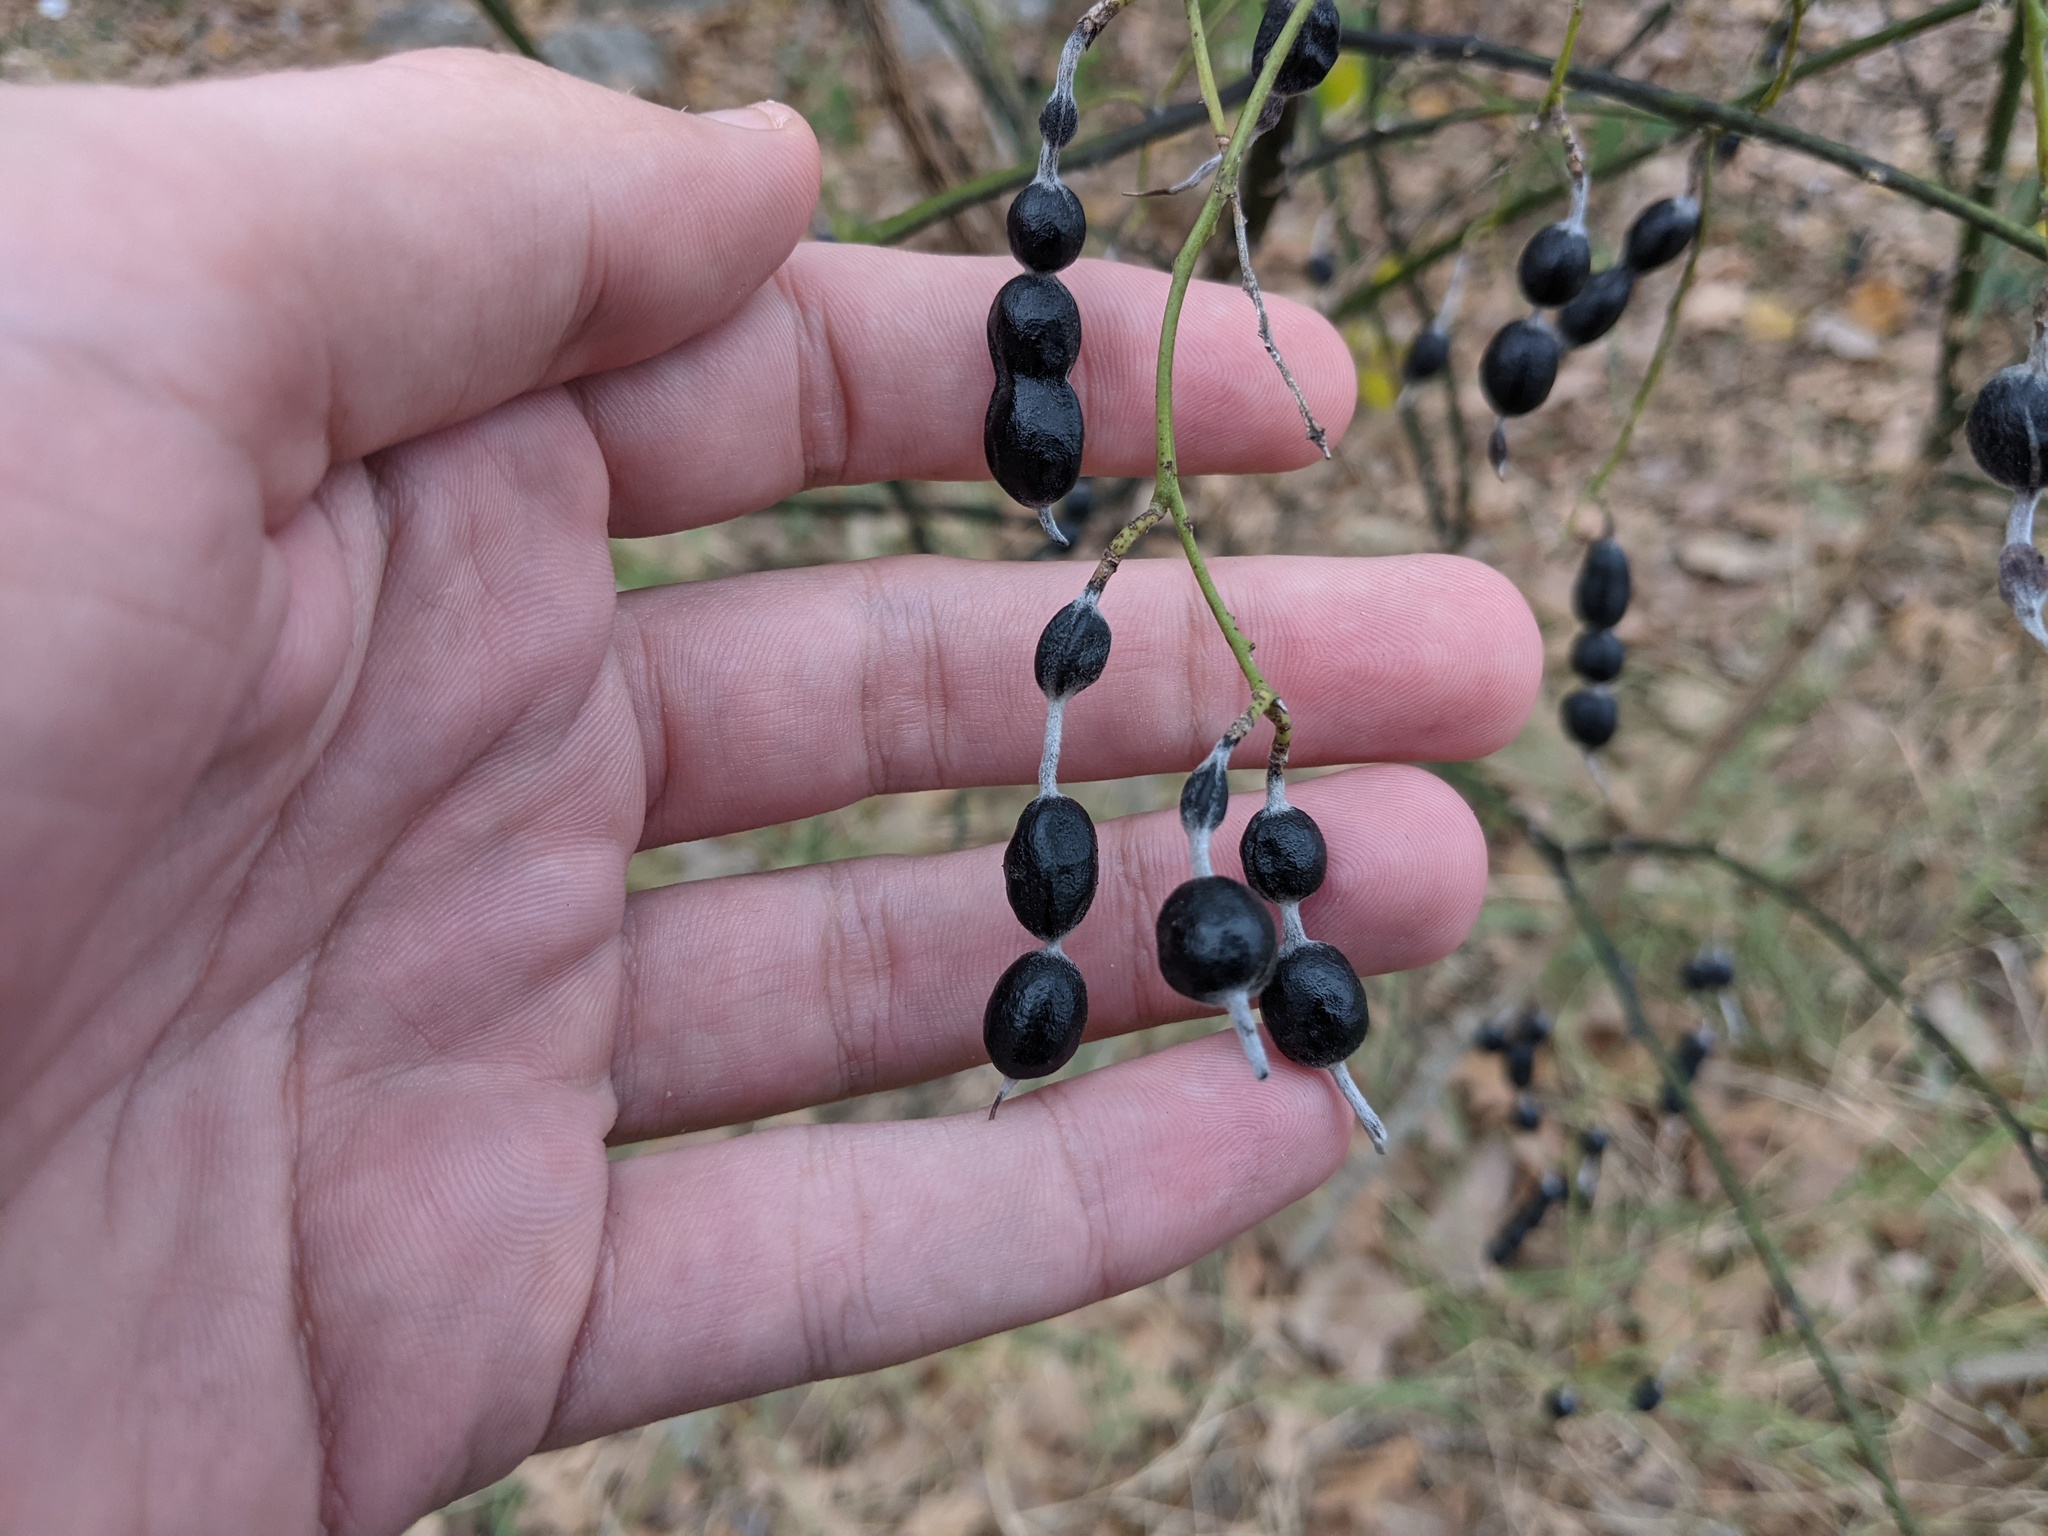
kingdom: Plantae
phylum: Tracheophyta
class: Magnoliopsida
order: Fabales
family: Fabaceae
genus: Styphnolobium
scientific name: Styphnolobium affine
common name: Texas sophora
